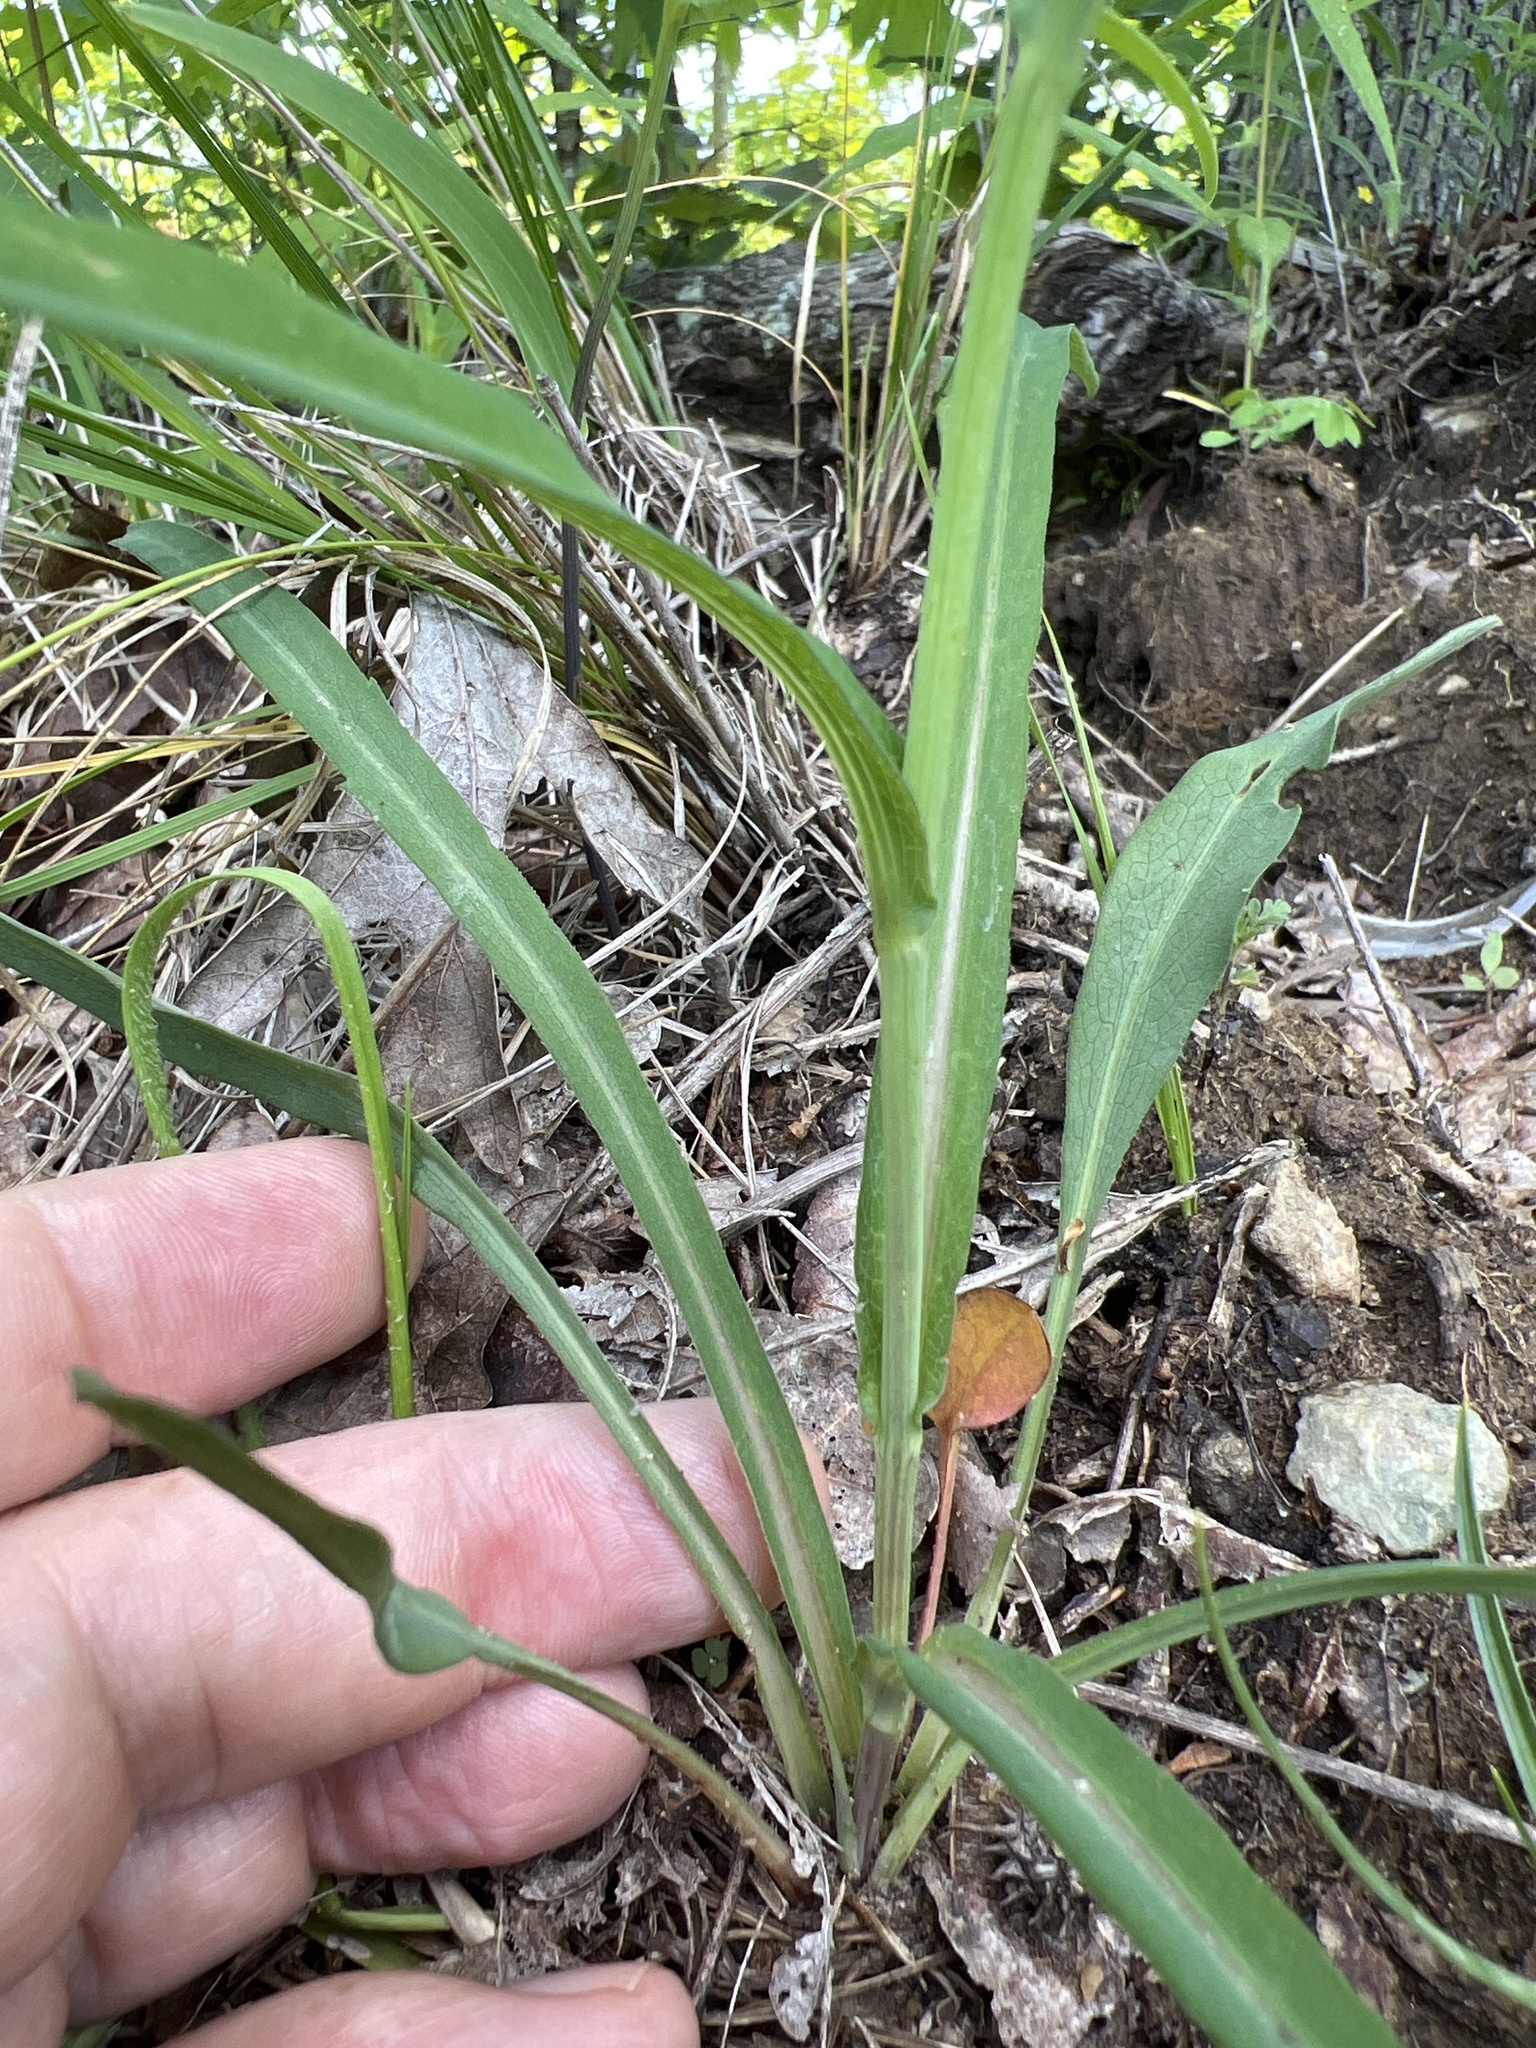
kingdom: Plantae
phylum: Tracheophyta
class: Magnoliopsida
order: Asterales
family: Asteraceae
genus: Symphyotrichum
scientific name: Symphyotrichum laeve
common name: Glaucous aster
